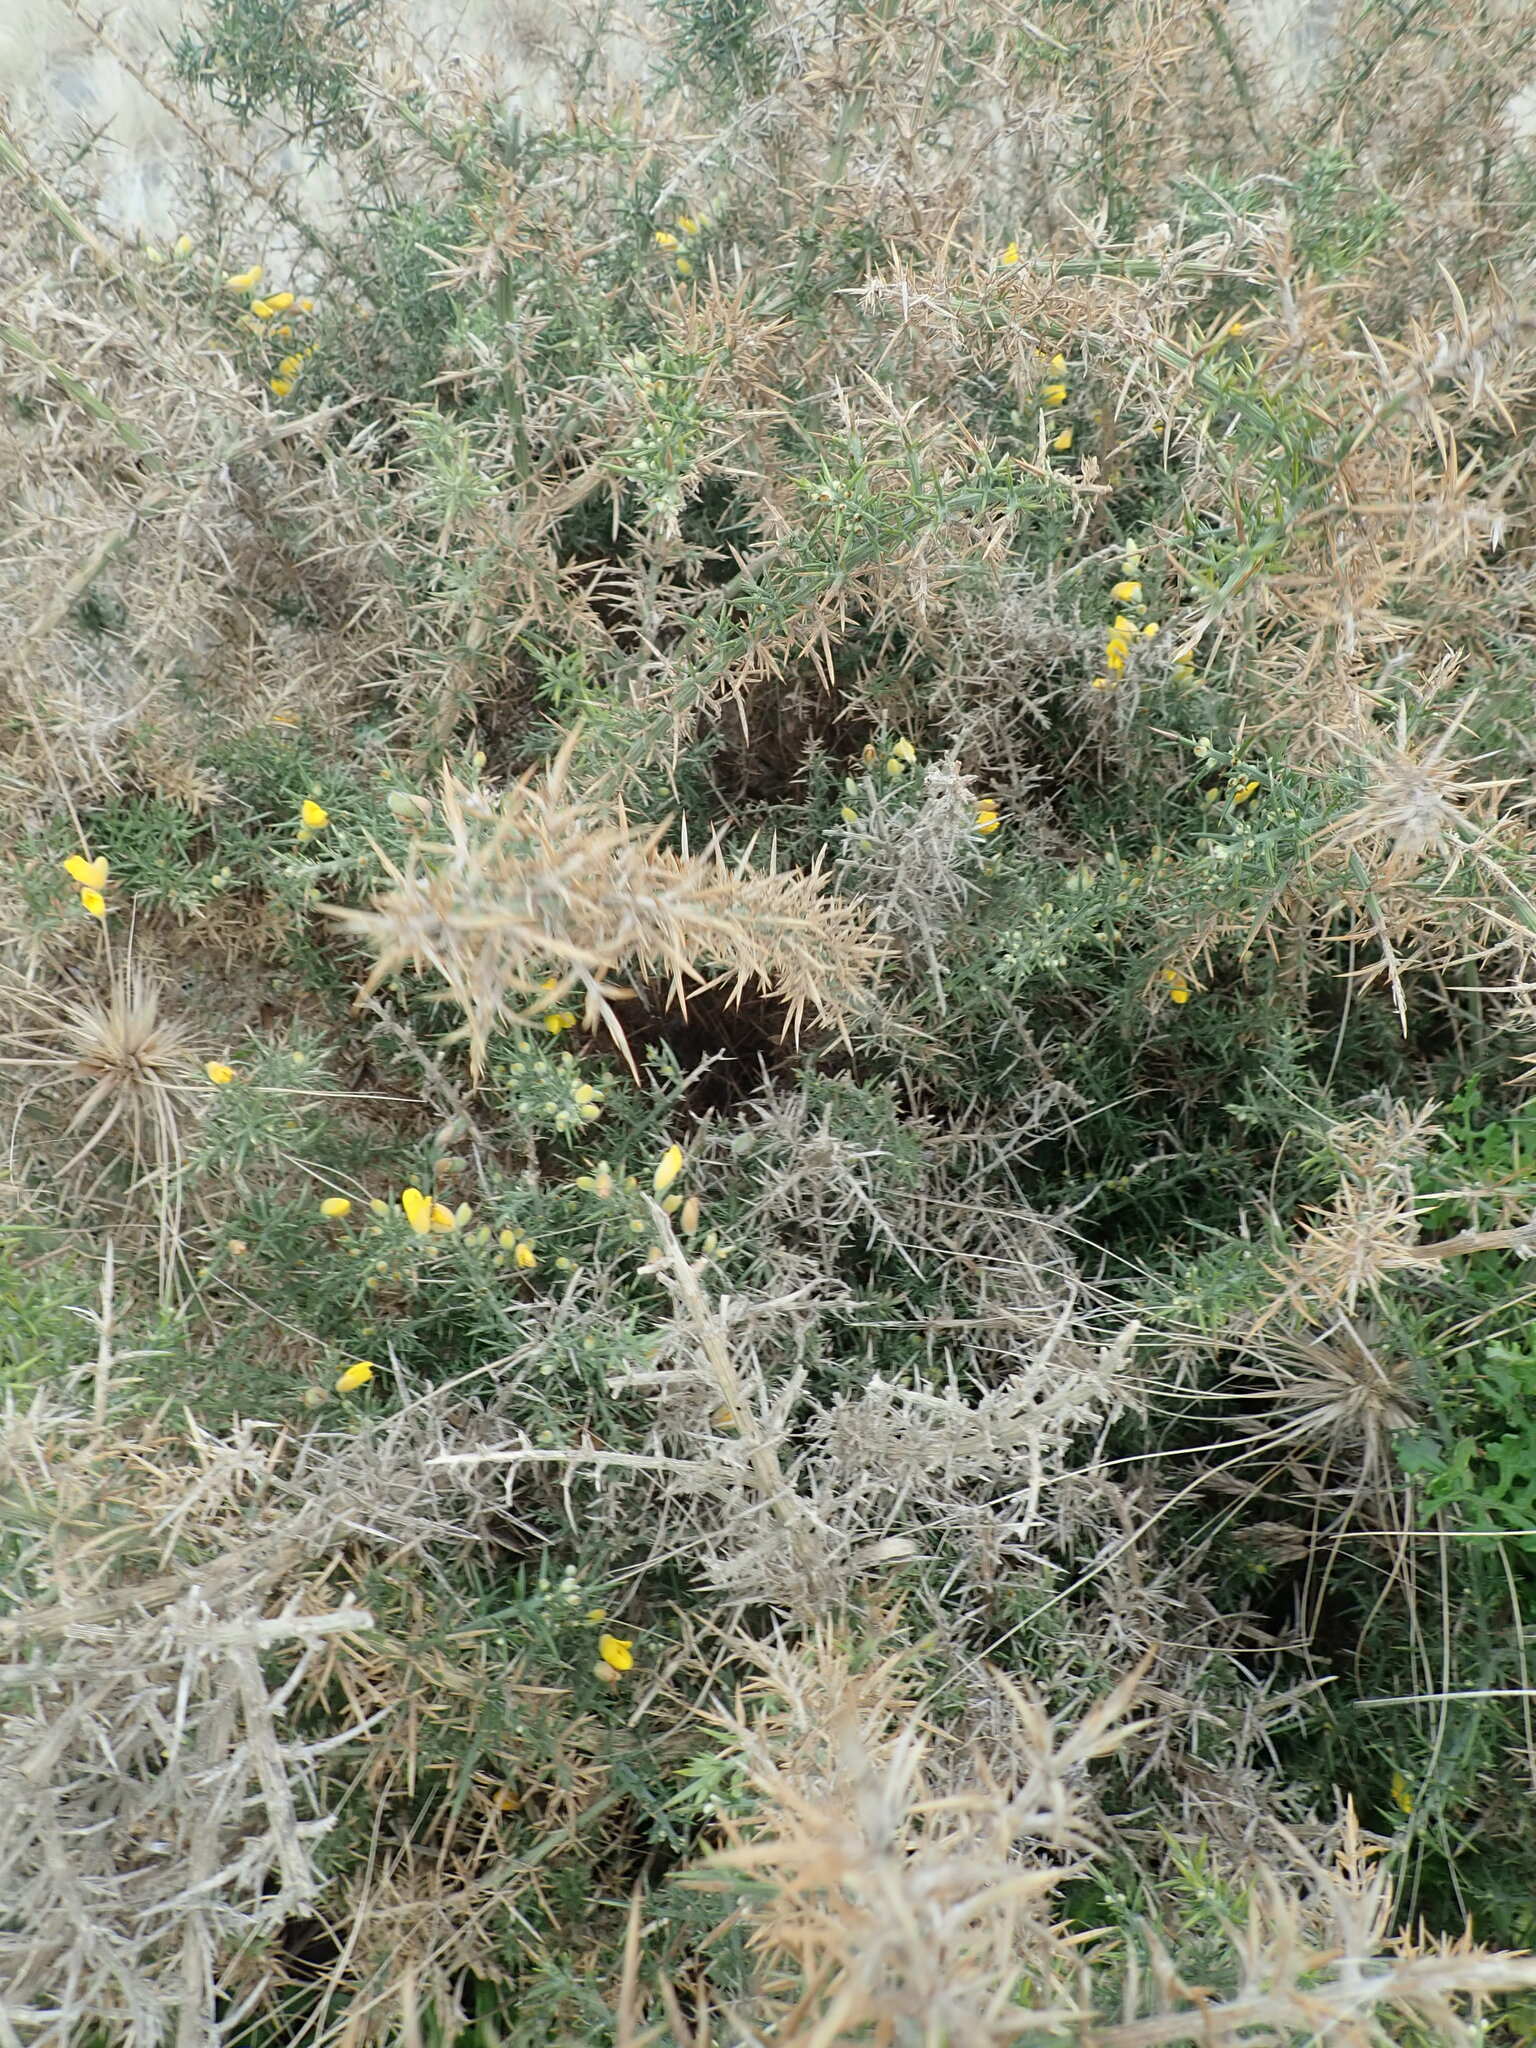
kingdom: Plantae
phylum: Tracheophyta
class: Magnoliopsida
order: Fabales
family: Fabaceae
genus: Ulex
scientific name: Ulex europaeus
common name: Common gorse
